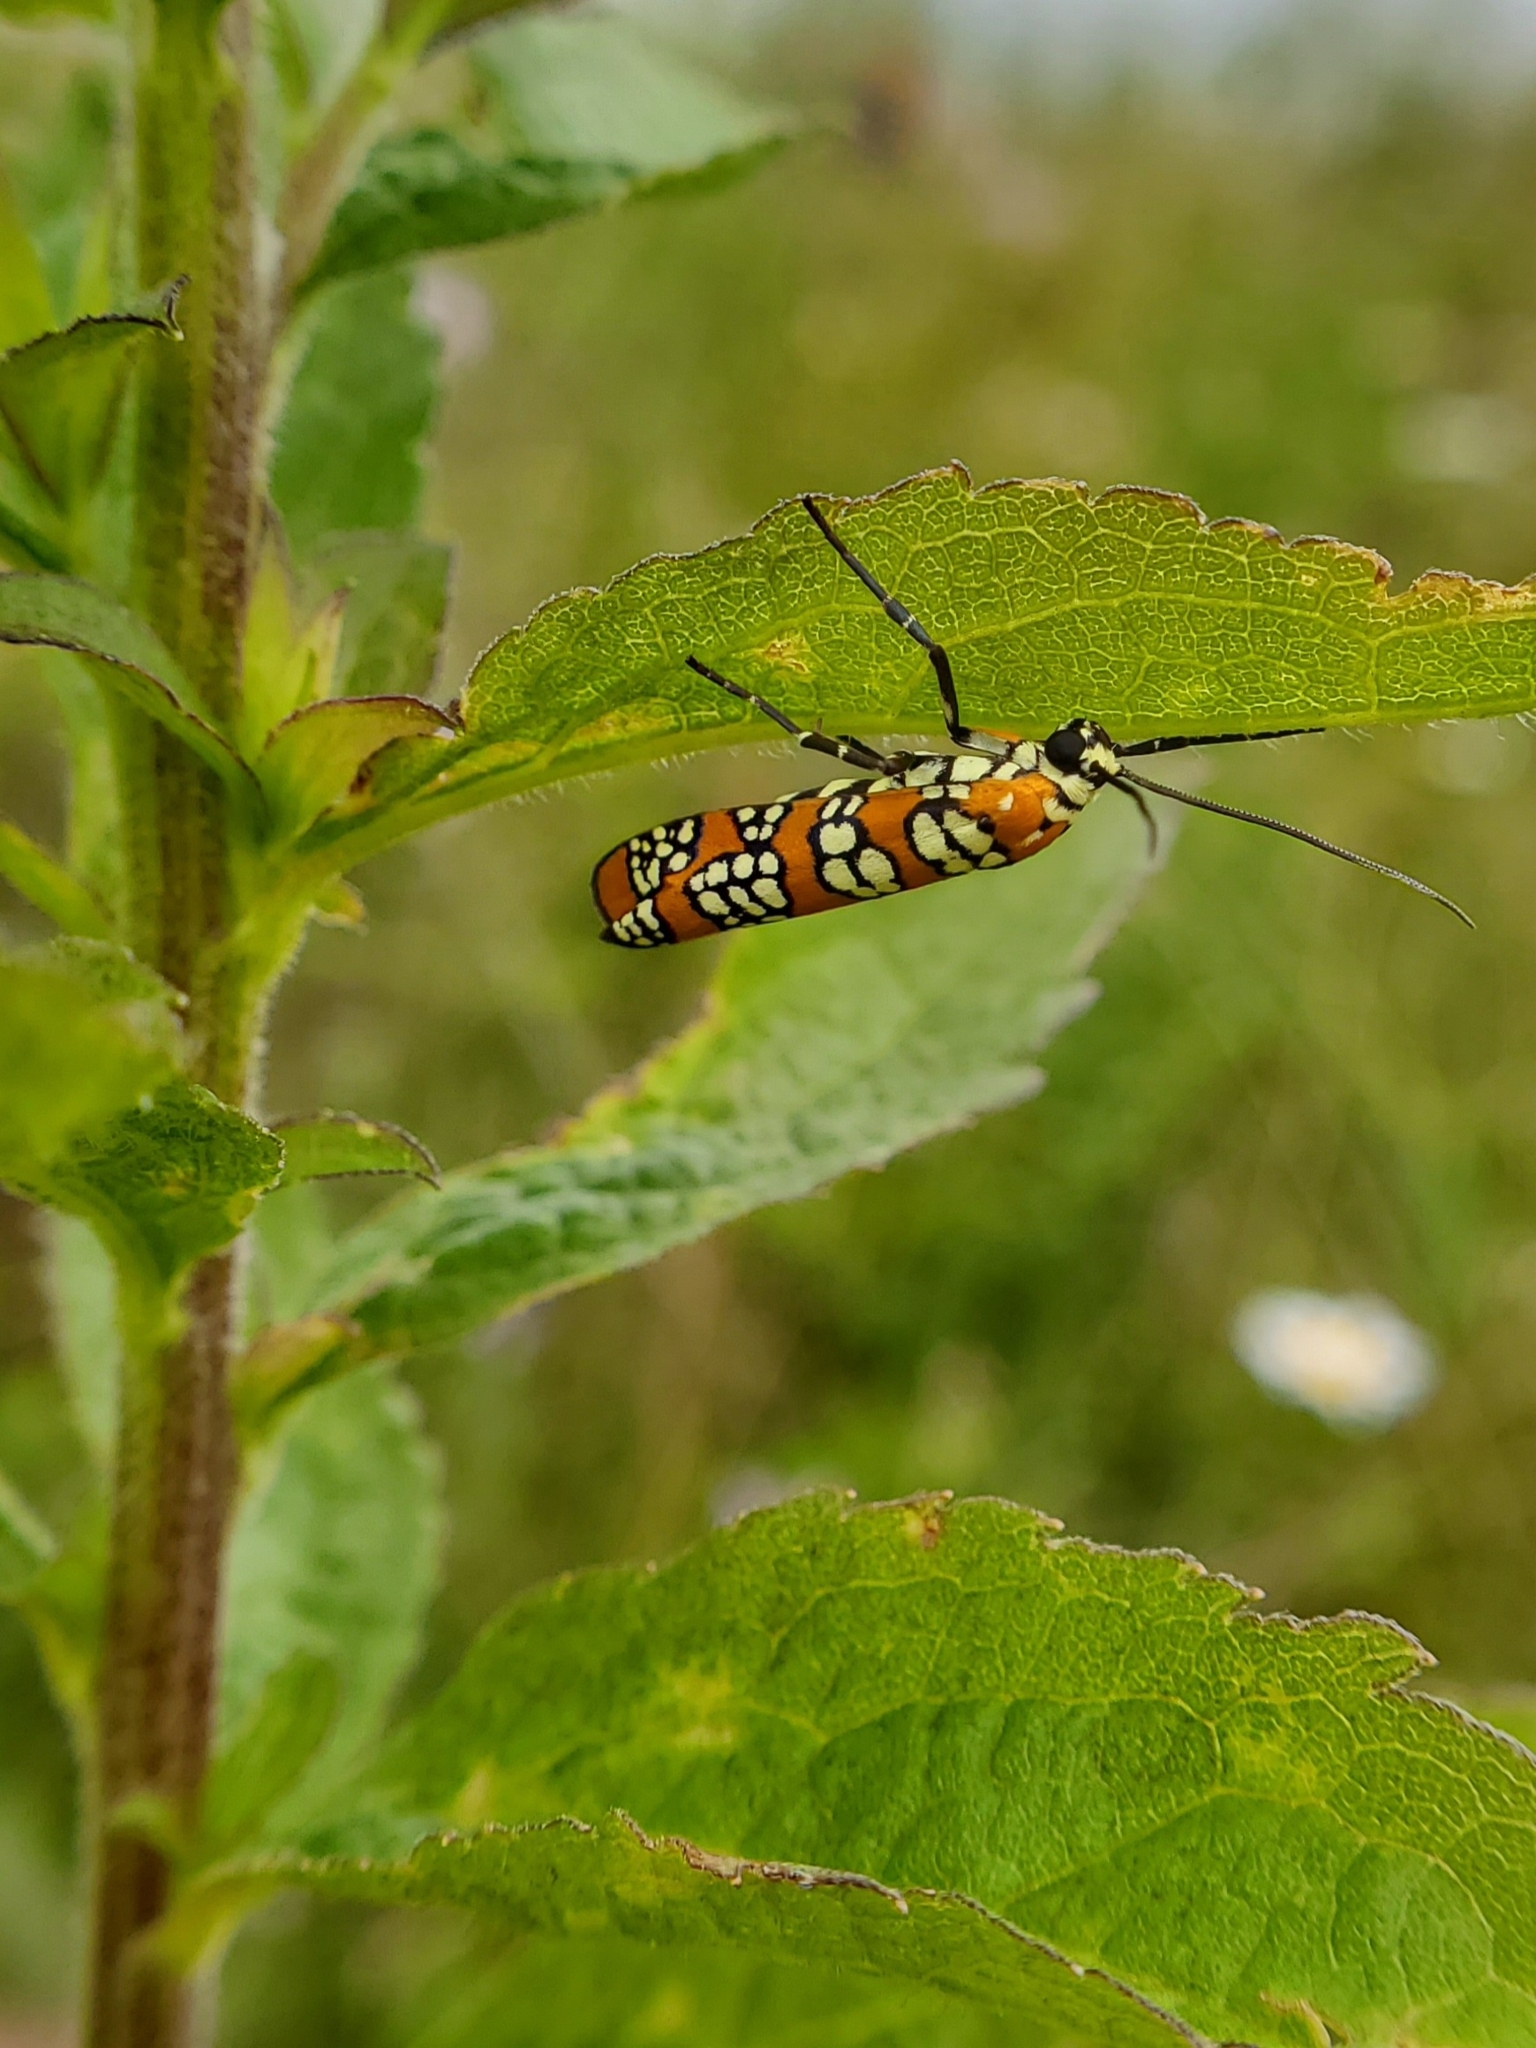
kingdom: Animalia
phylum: Arthropoda
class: Insecta
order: Lepidoptera
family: Attevidae
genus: Atteva
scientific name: Atteva punctella
